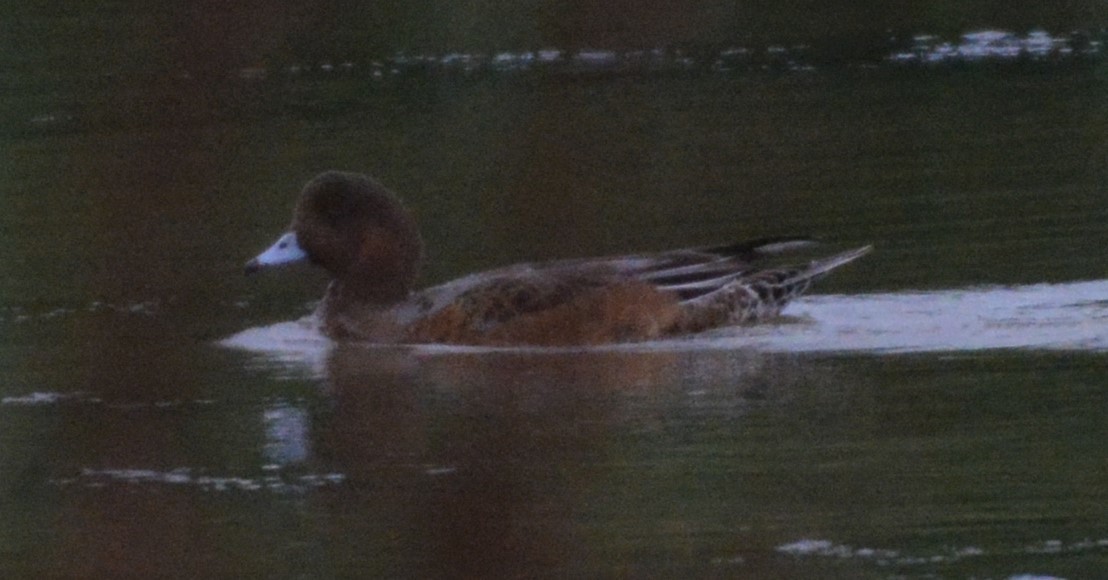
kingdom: Animalia
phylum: Chordata
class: Aves
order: Anseriformes
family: Anatidae
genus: Mareca
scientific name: Mareca penelope
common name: Eurasian wigeon
